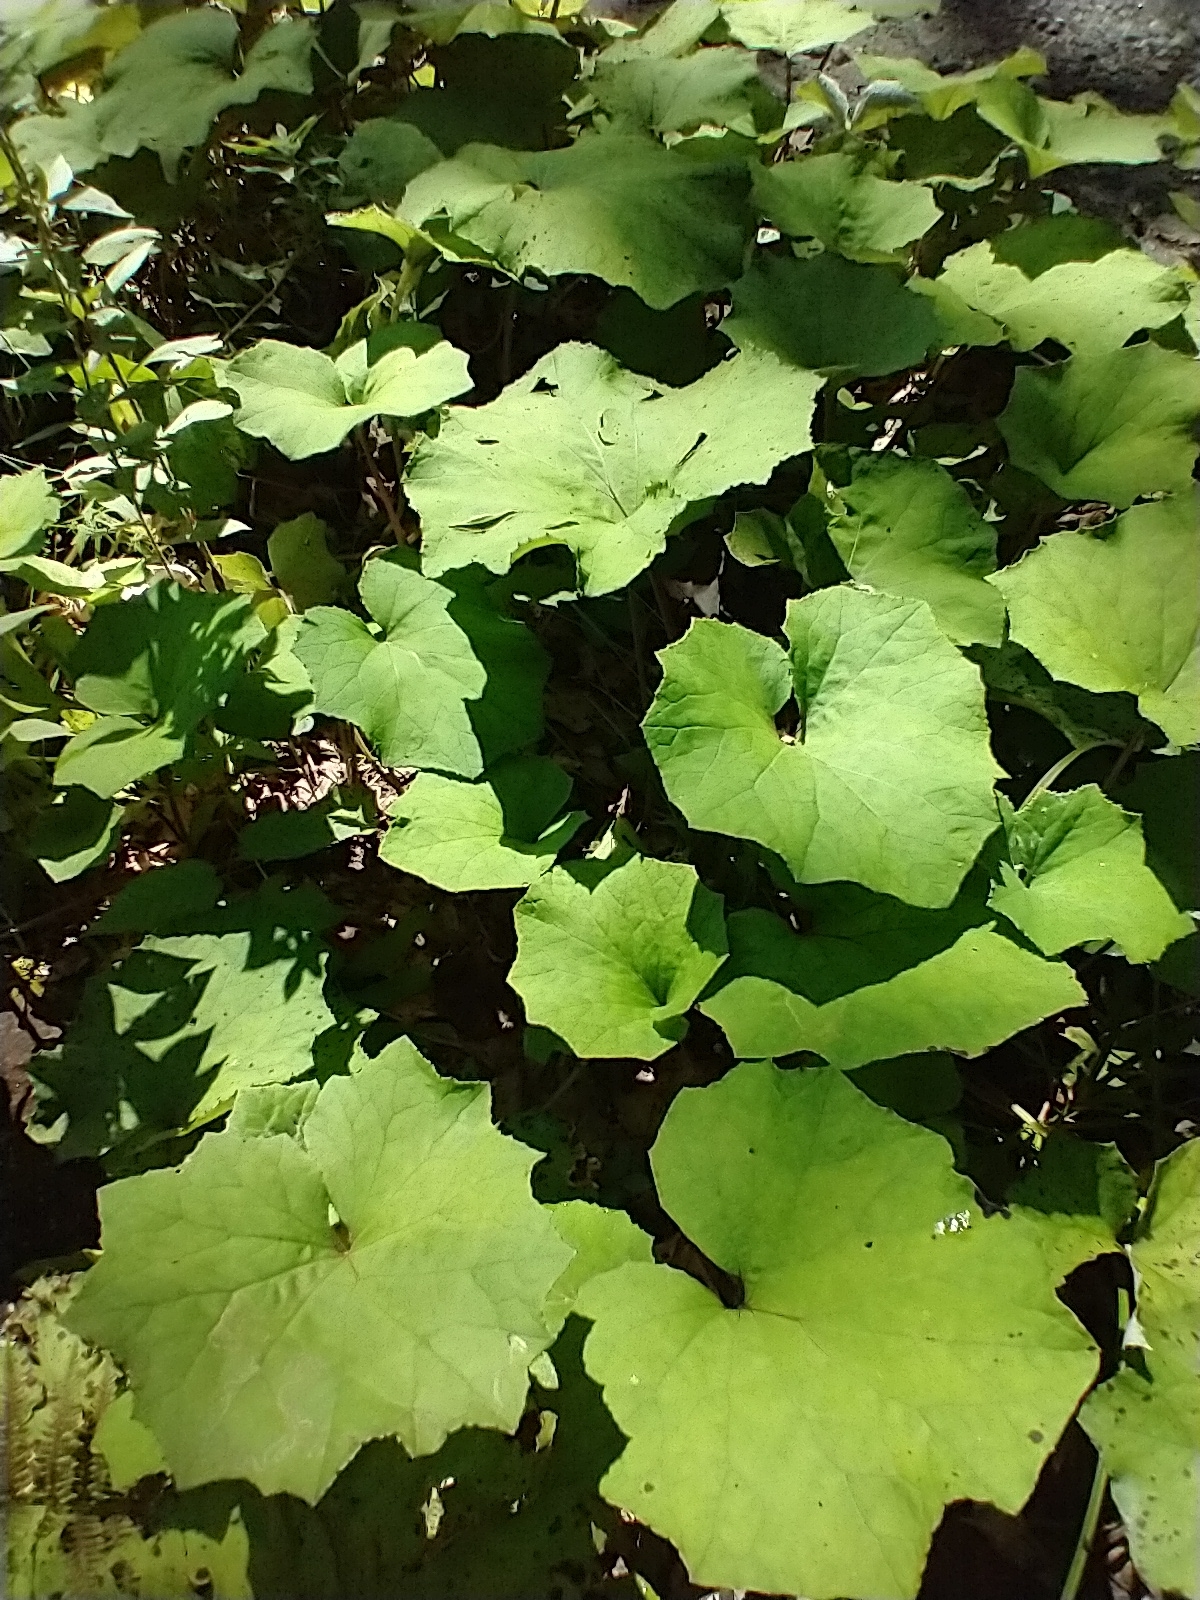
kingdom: Plantae
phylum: Tracheophyta
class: Magnoliopsida
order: Asterales
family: Asteraceae
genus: Tussilago
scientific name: Tussilago farfara
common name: Coltsfoot
